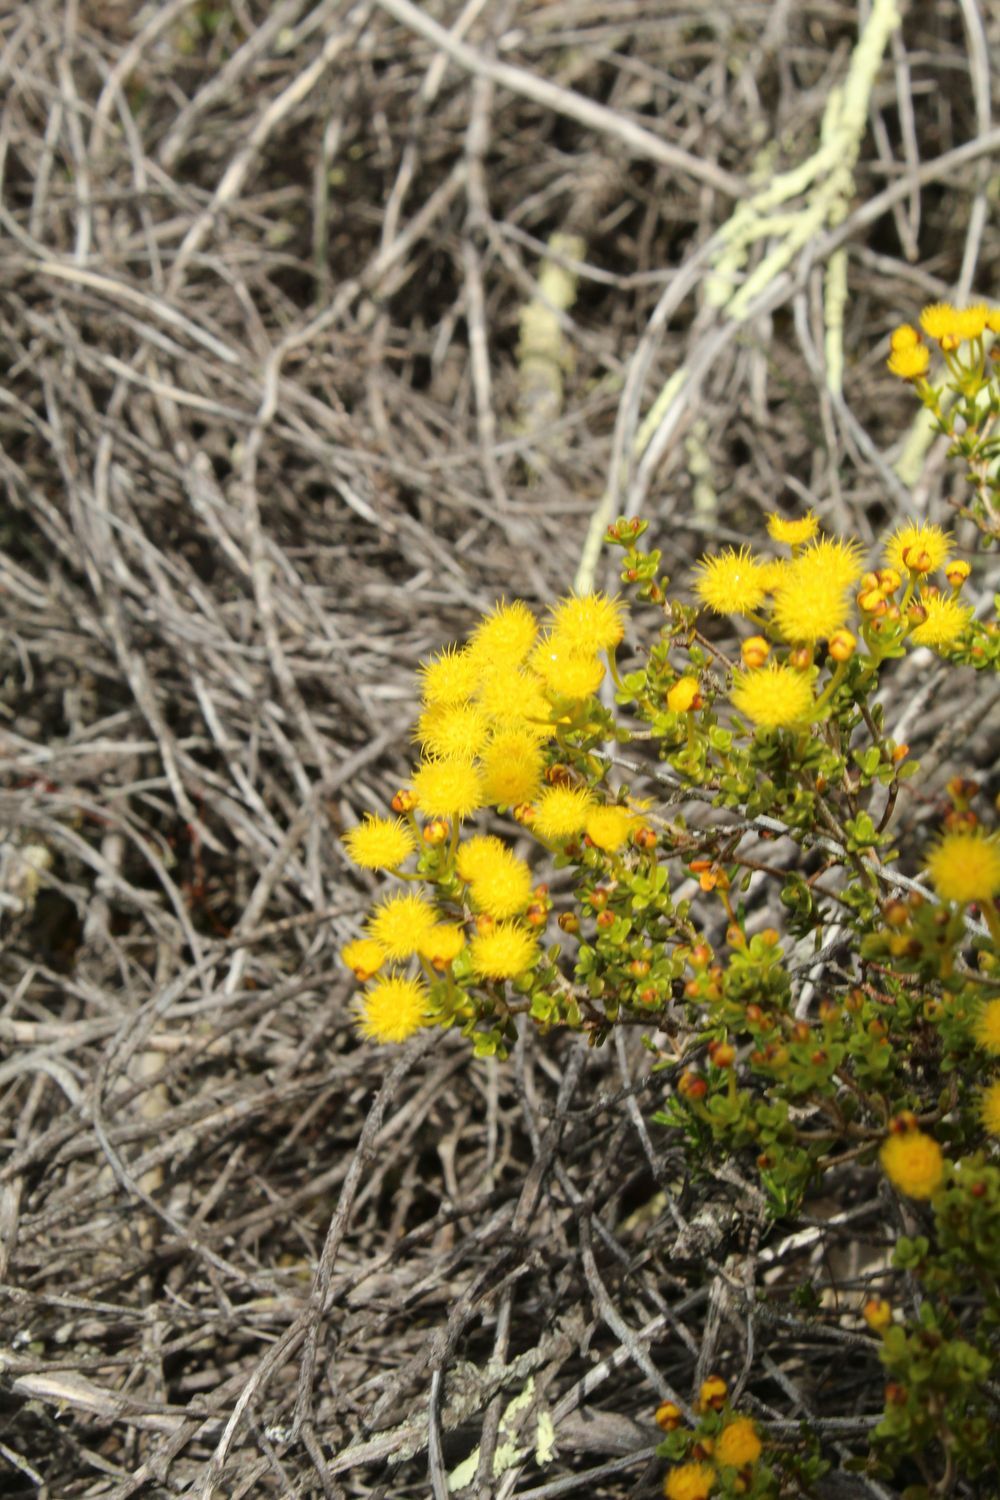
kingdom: Plantae
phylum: Tracheophyta
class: Magnoliopsida
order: Myrtales
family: Myrtaceae
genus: Verticordia
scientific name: Verticordia subulata
